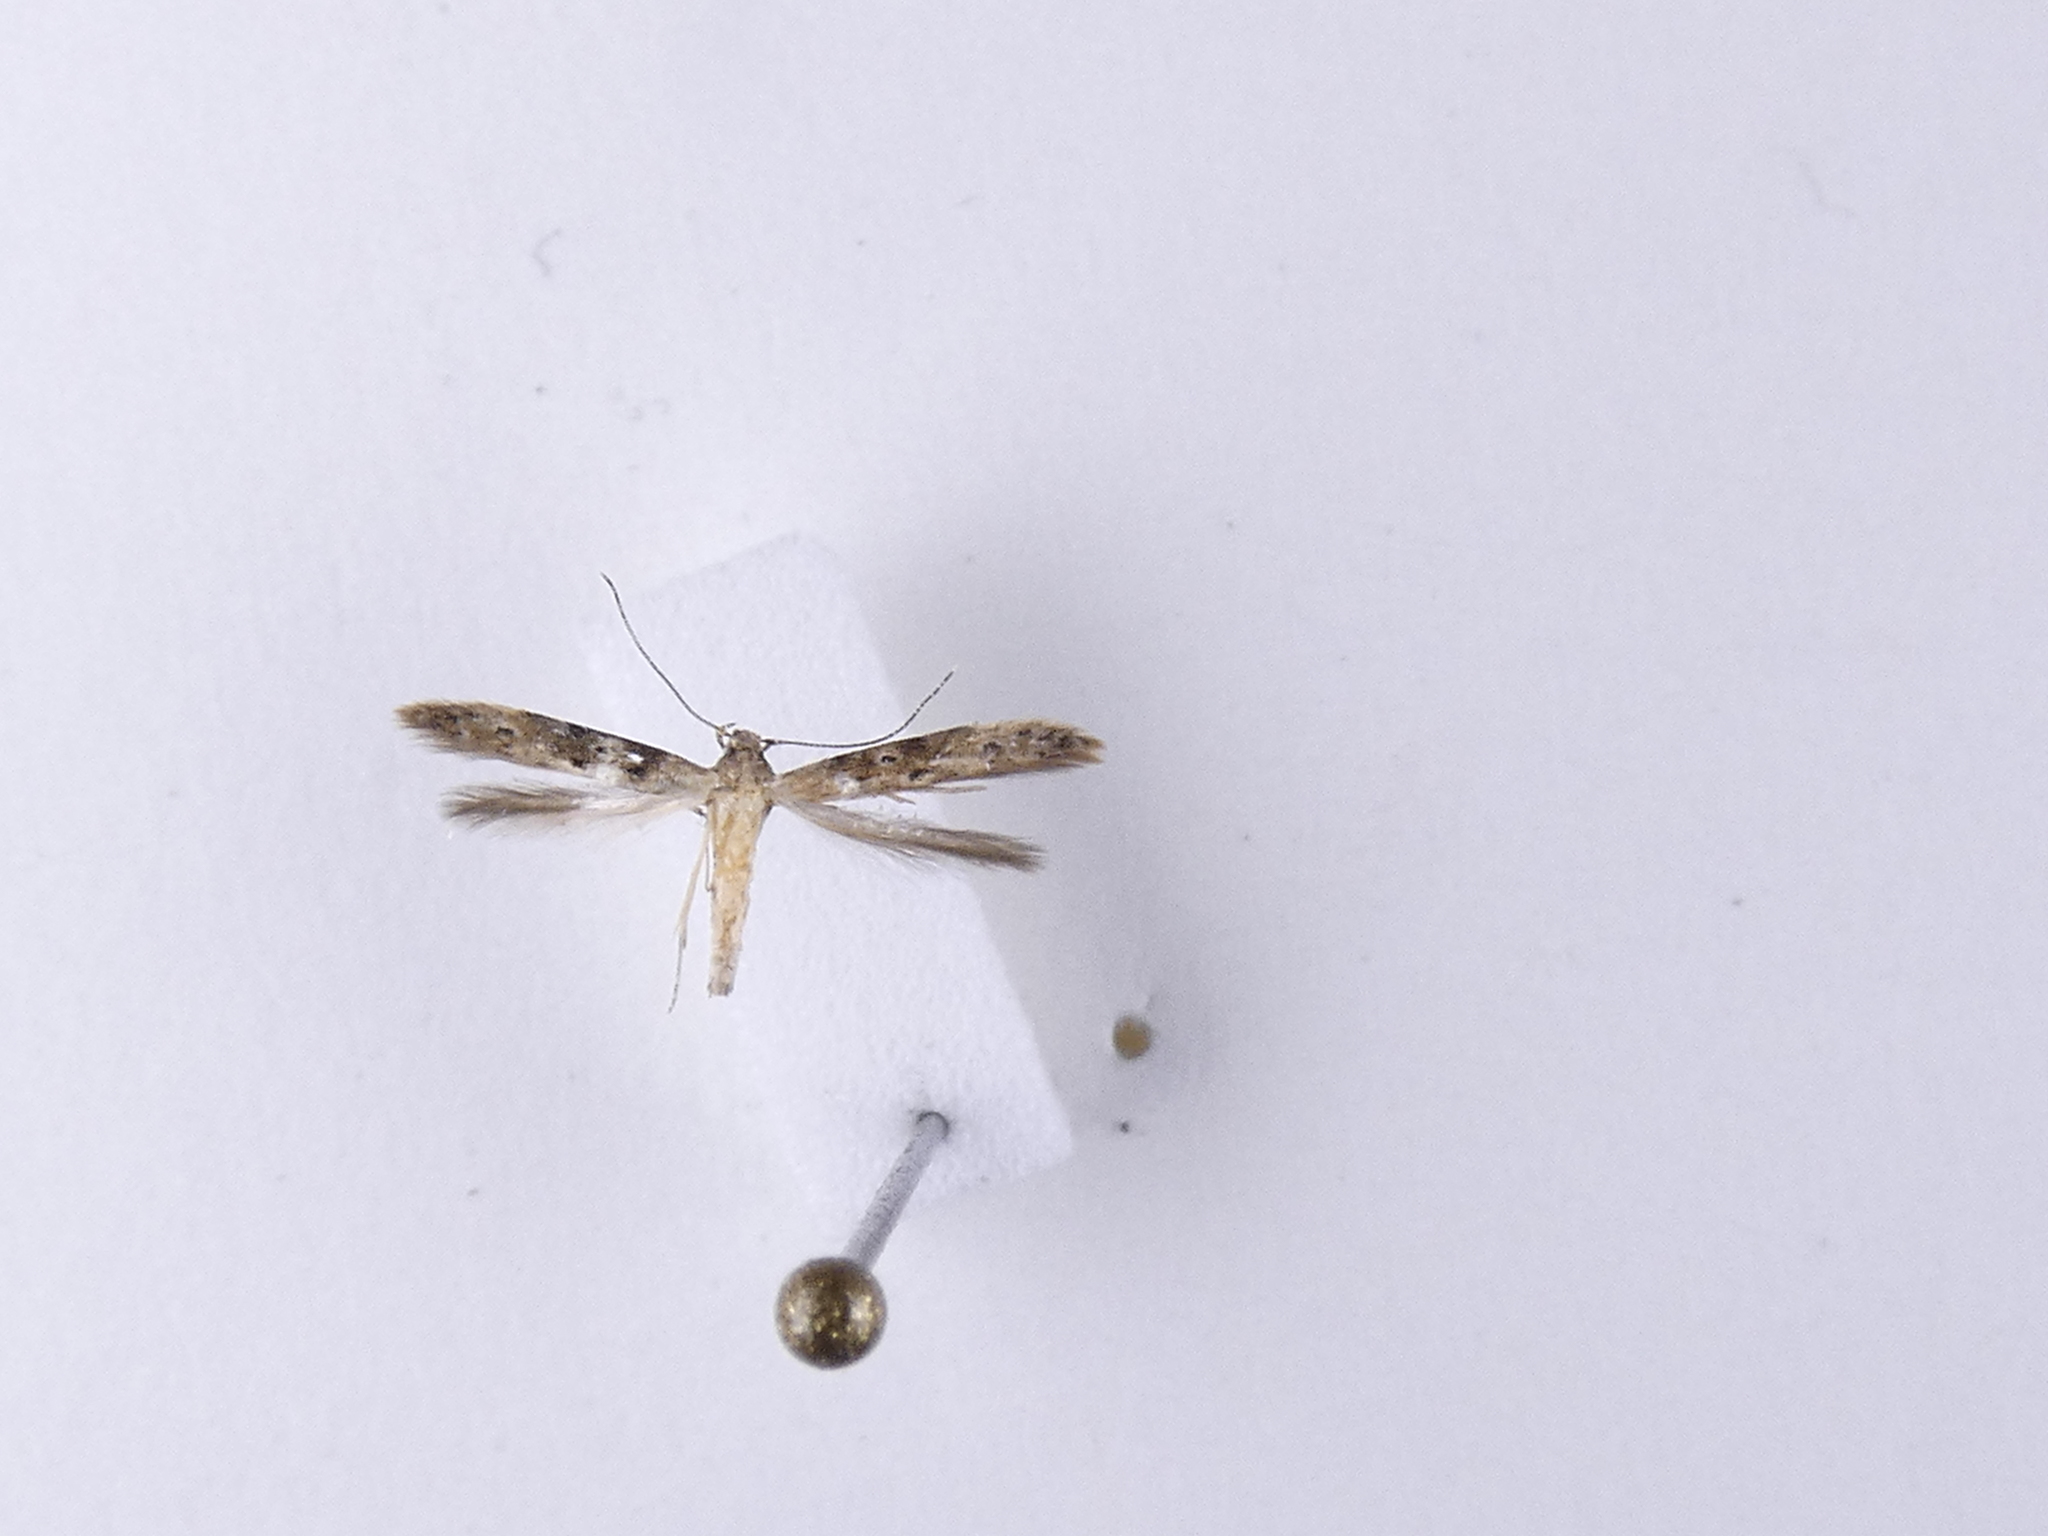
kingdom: Animalia
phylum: Arthropoda
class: Insecta
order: Lepidoptera
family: Elachistidae
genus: Microcolona
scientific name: Microcolona limodes
